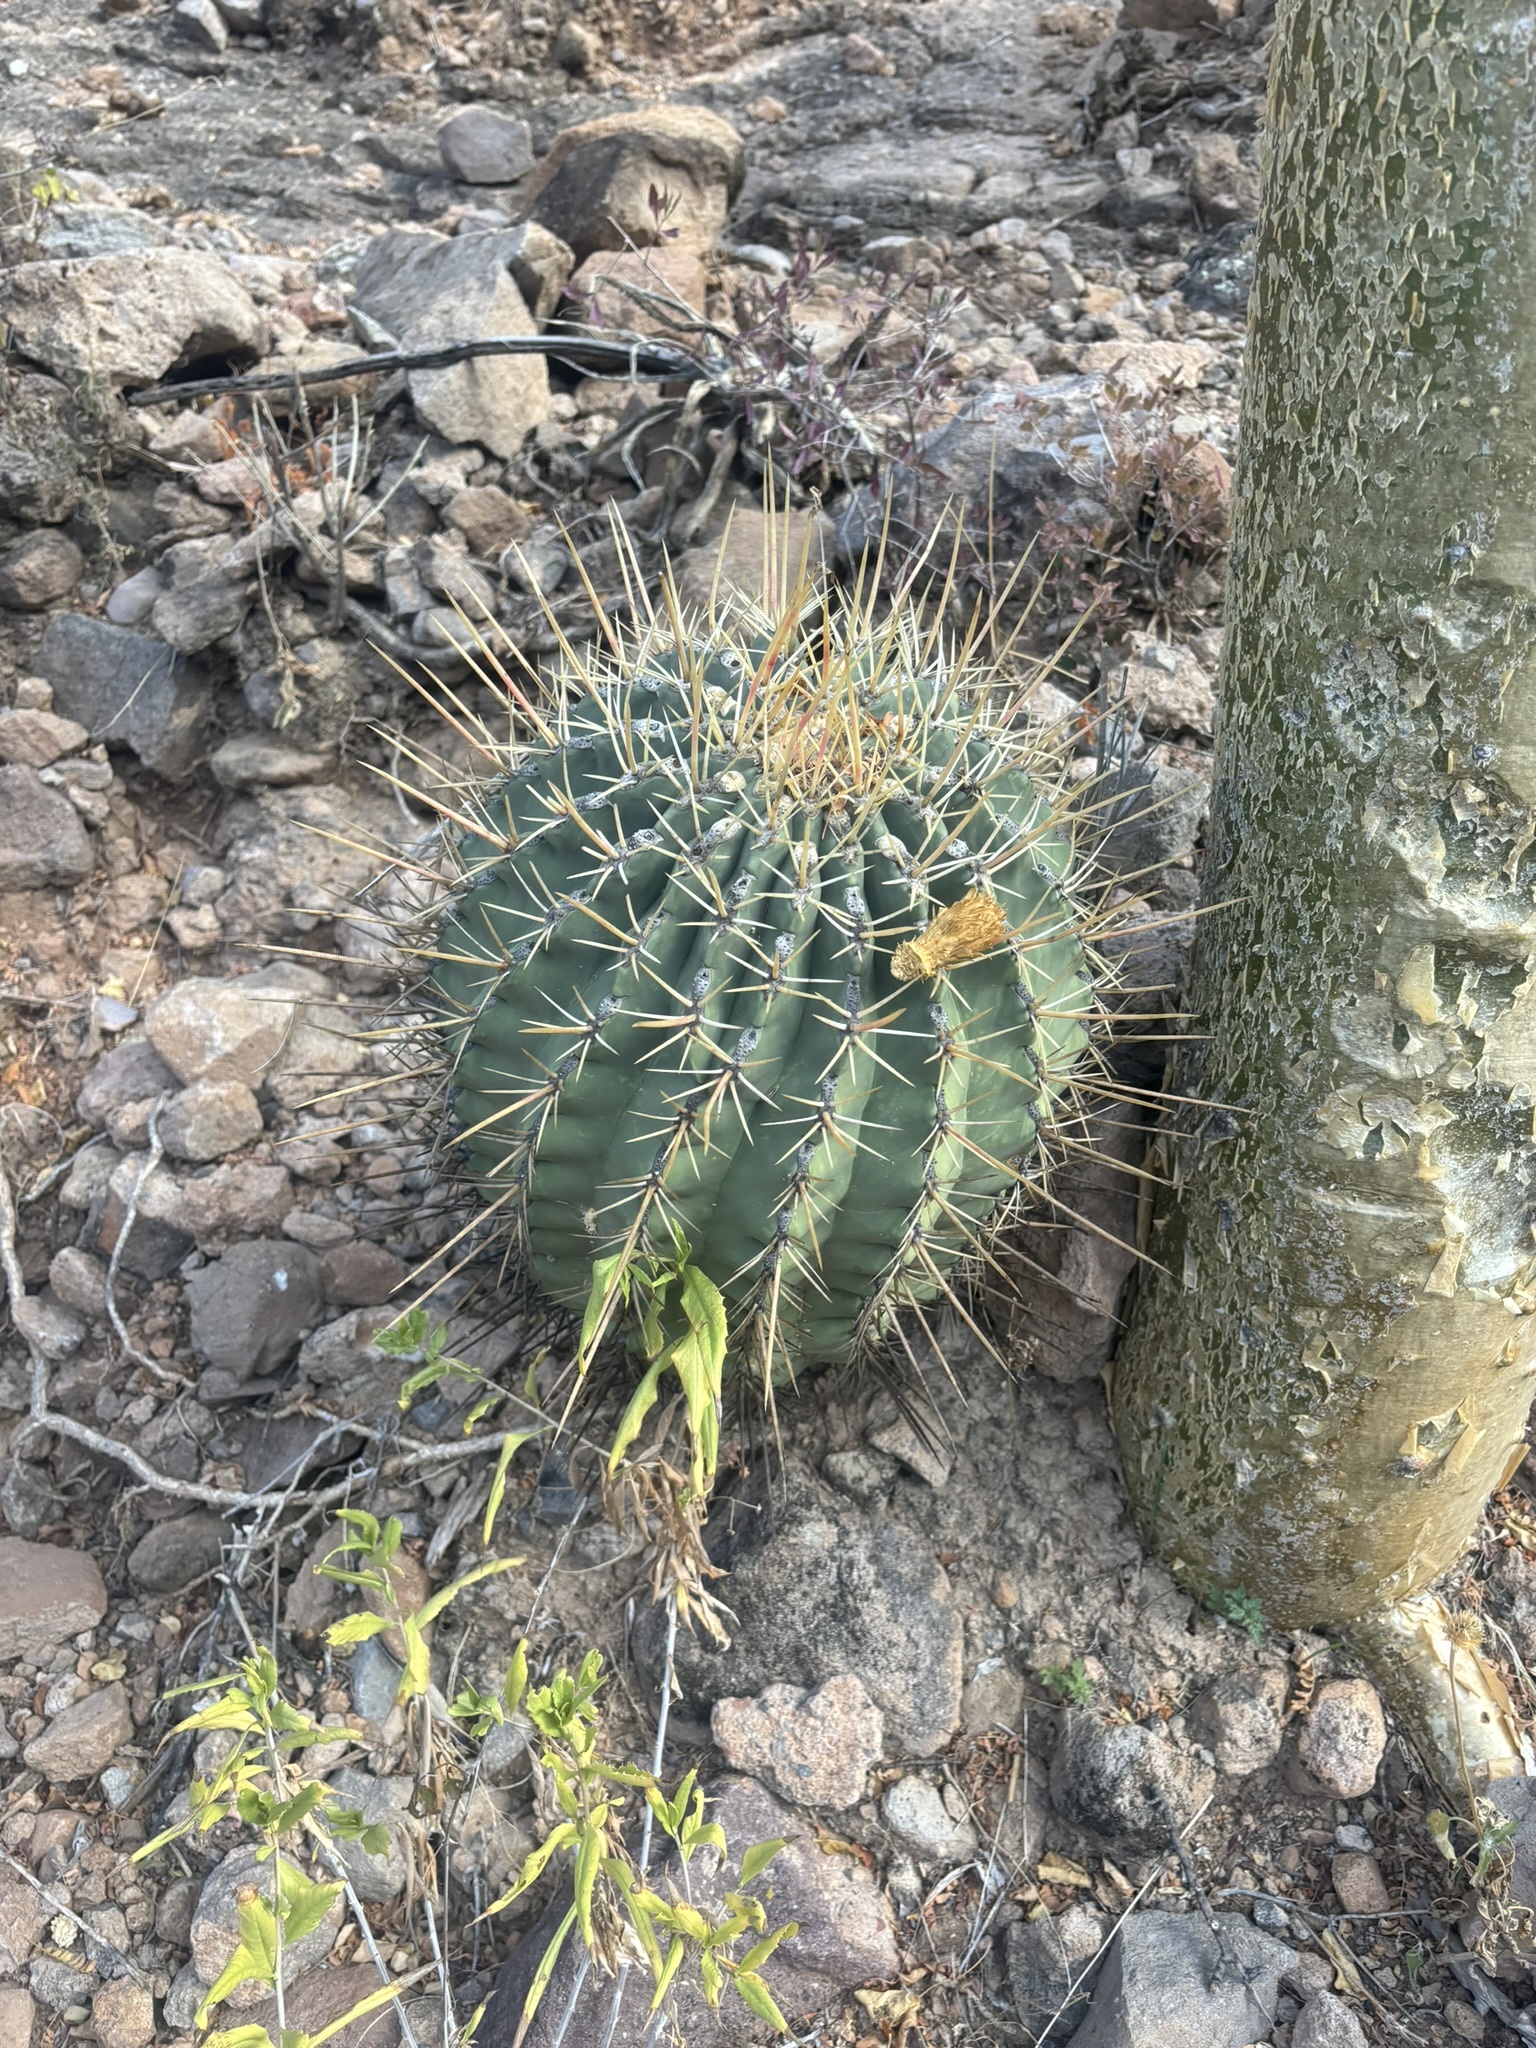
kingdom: Plantae
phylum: Tracheophyta
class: Magnoliopsida
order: Caryophyllales
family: Cactaceae
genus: Ferocactus
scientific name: Ferocactus emoryi
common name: Emory's barrel cactus
